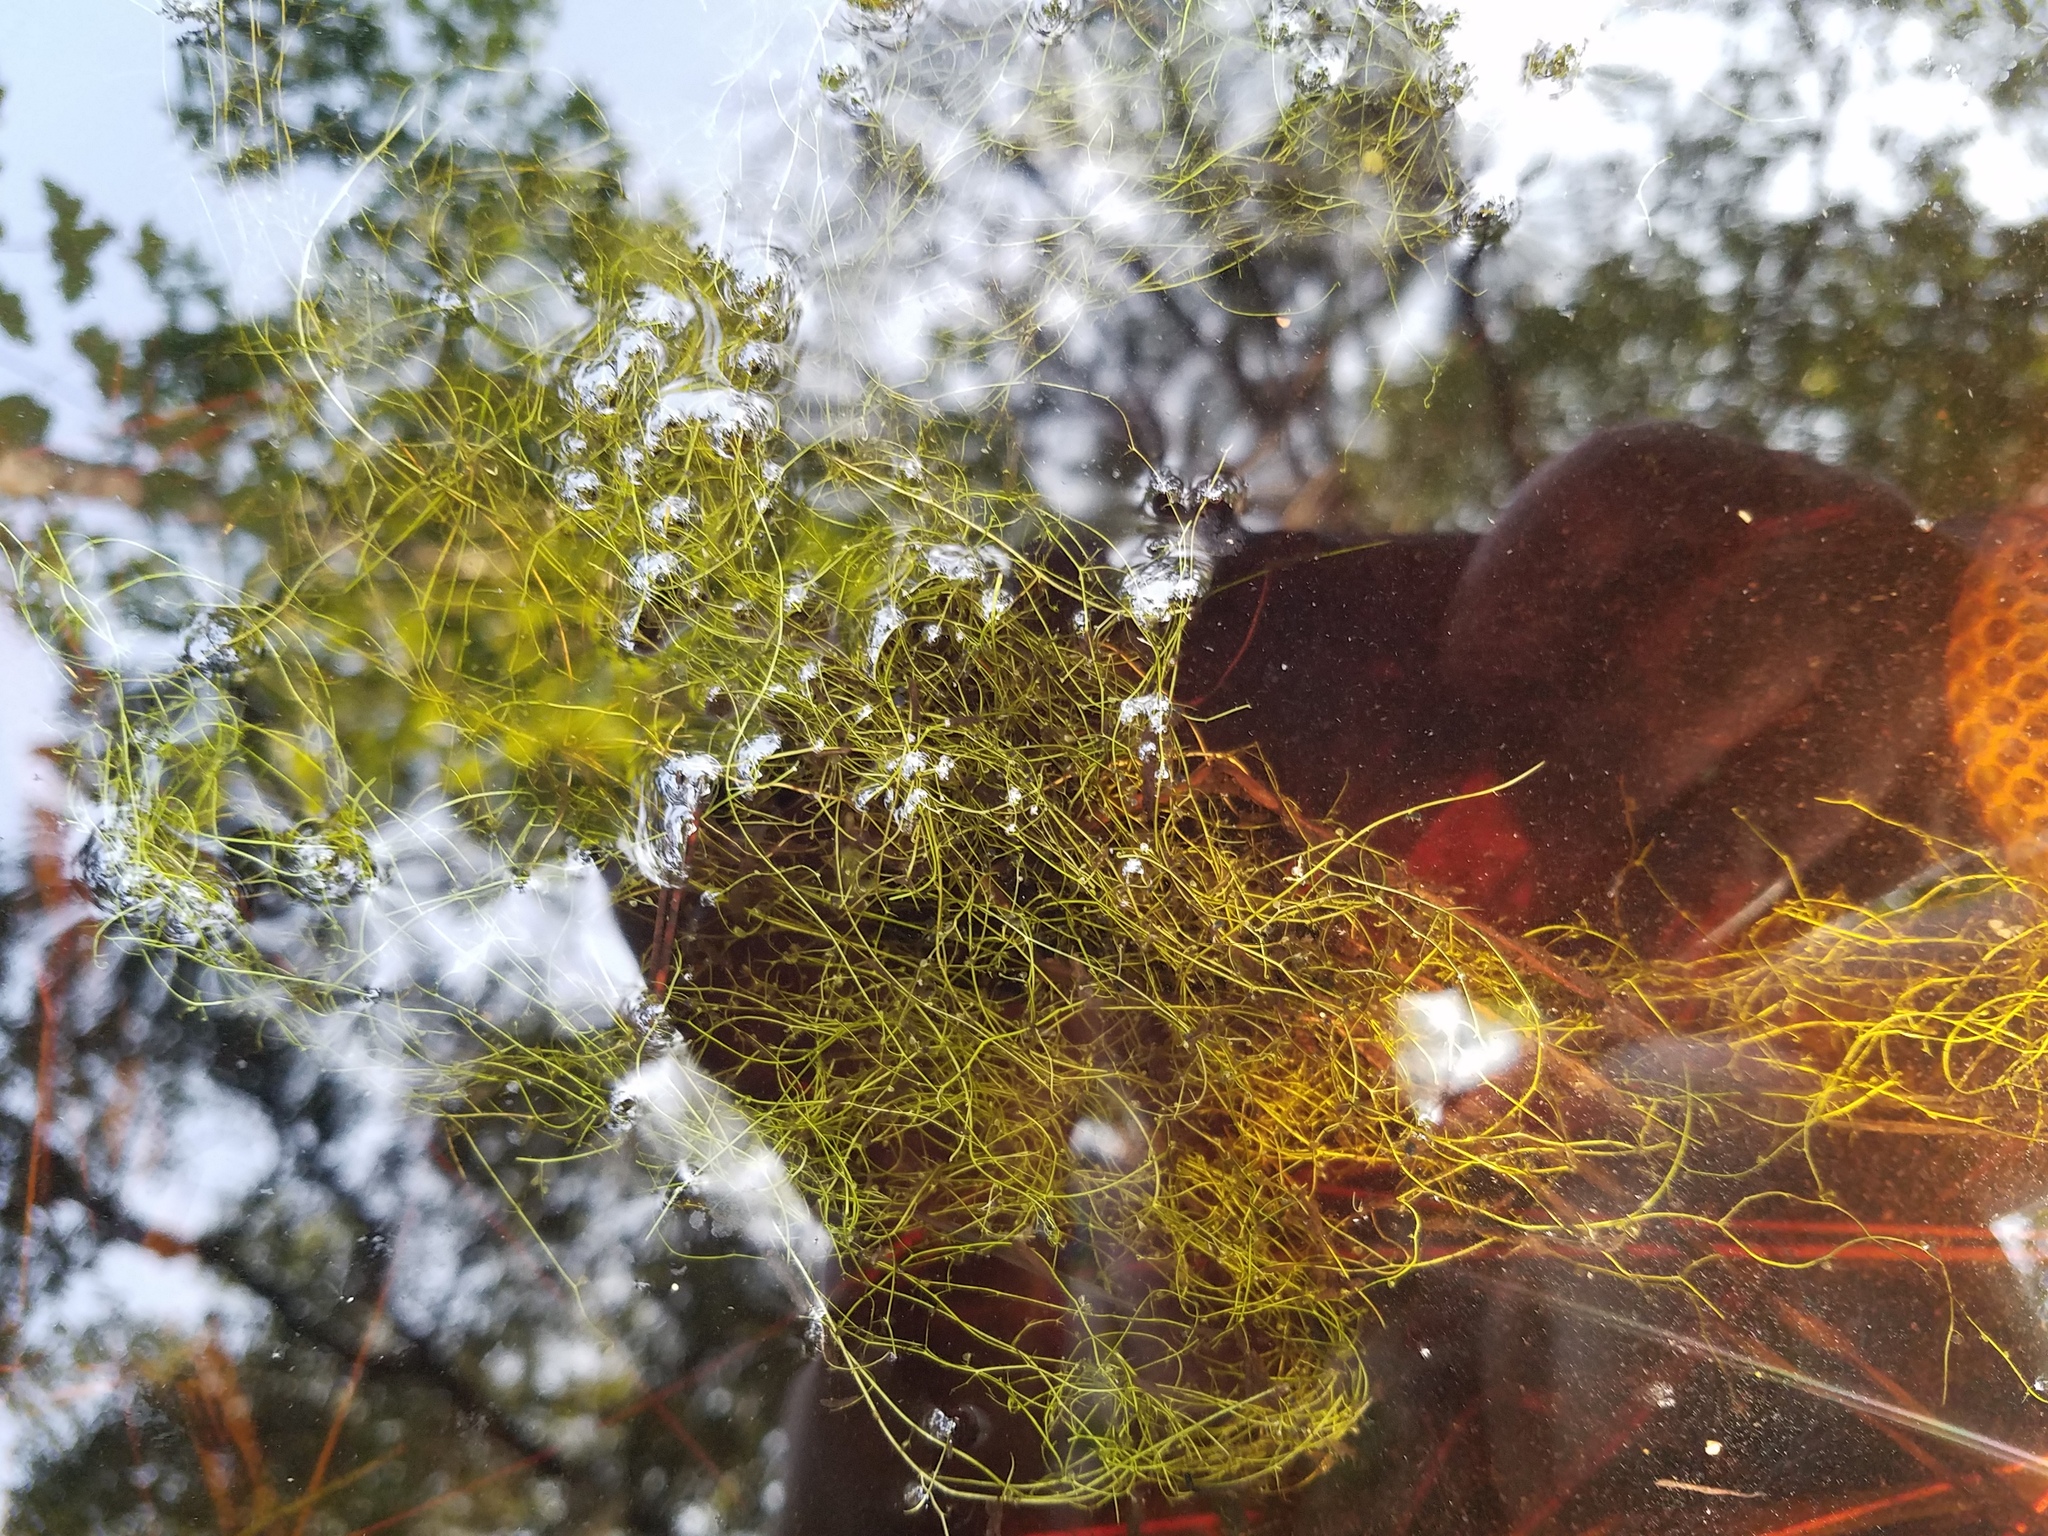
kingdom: Plantae
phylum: Tracheophyta
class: Magnoliopsida
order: Lamiales
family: Lentibulariaceae
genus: Utricularia
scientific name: Utricularia gibba
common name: Humped bladderwort
